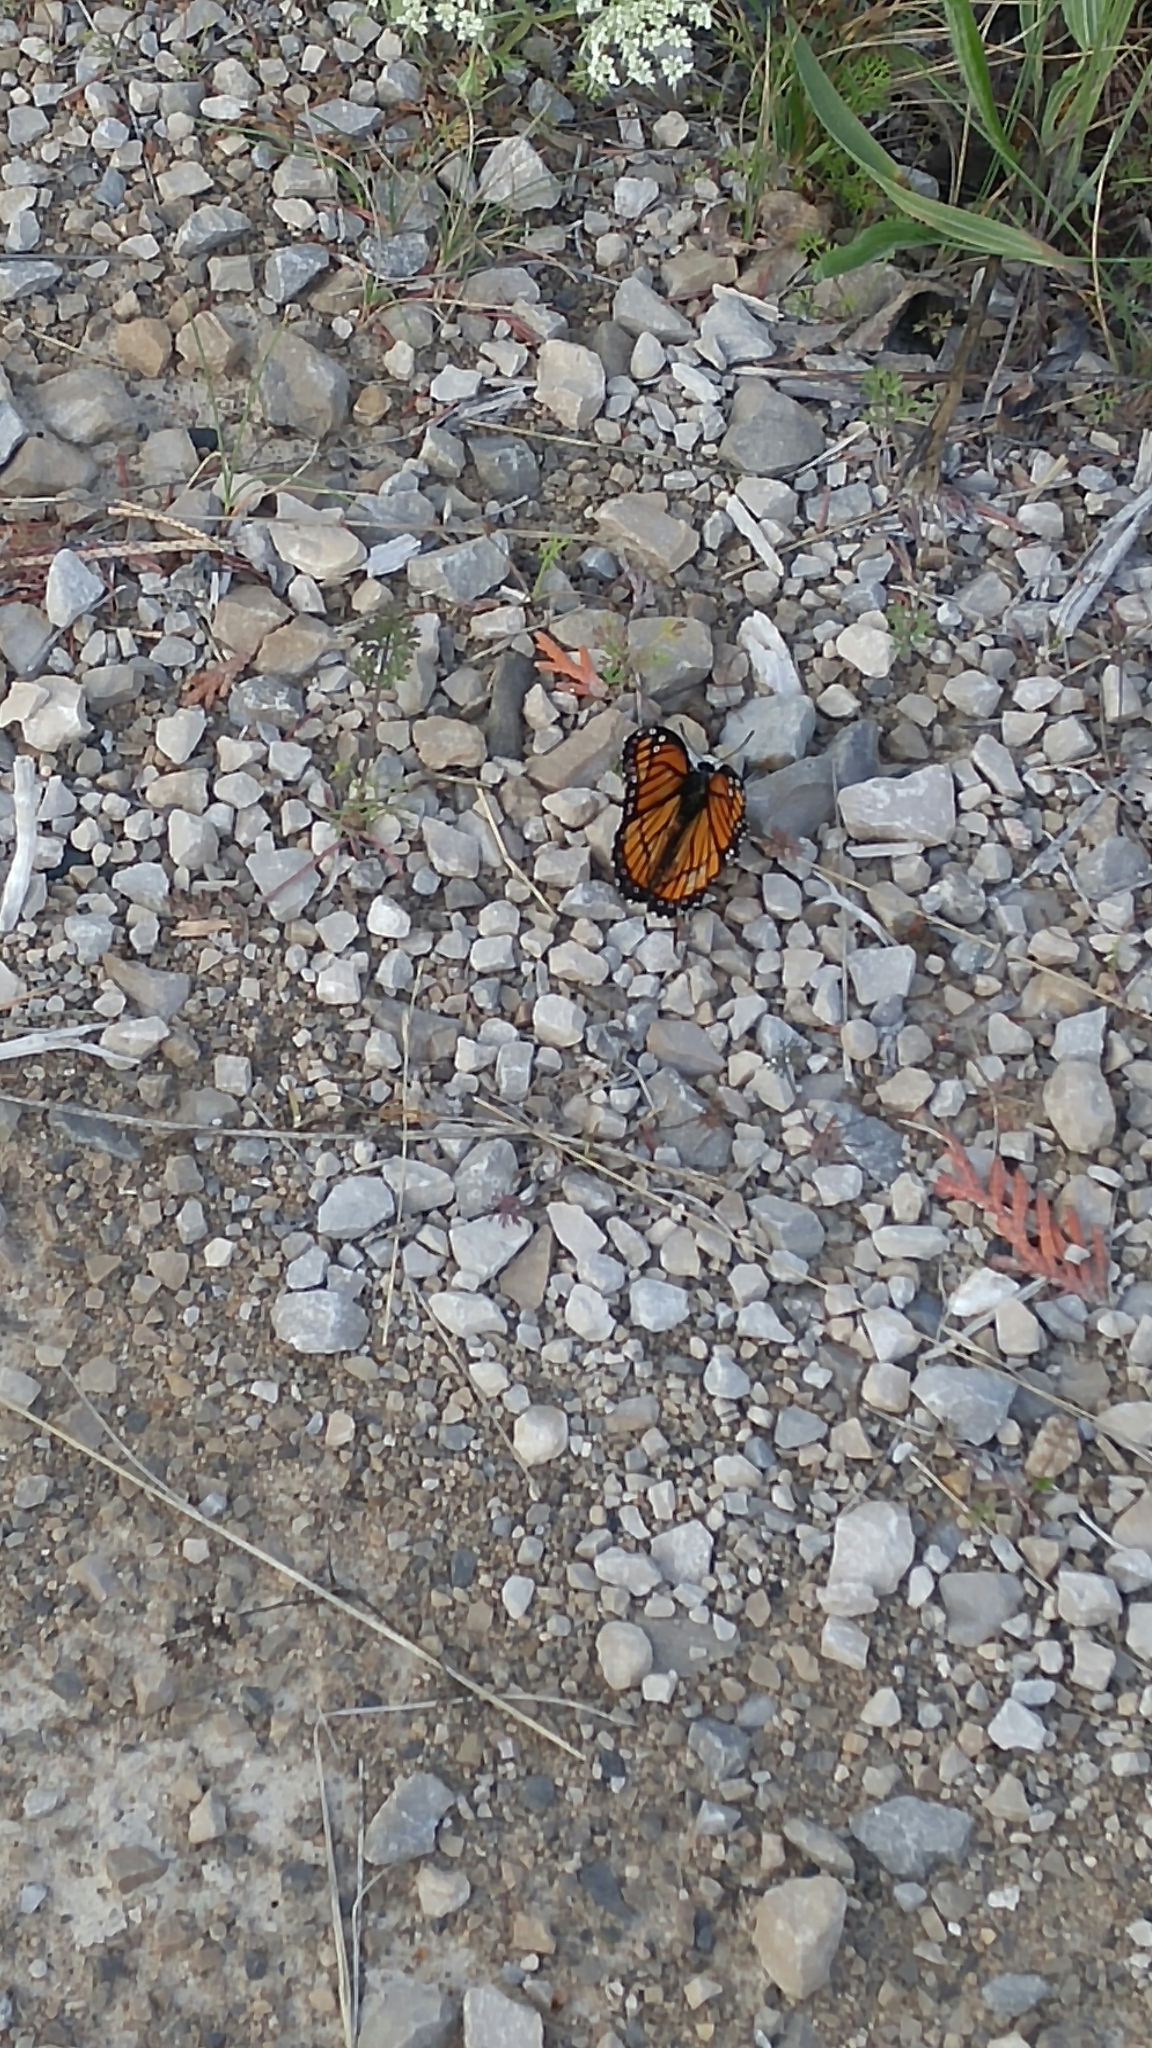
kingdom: Animalia
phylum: Arthropoda
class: Insecta
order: Lepidoptera
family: Nymphalidae
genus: Limenitis
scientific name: Limenitis archippus
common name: Viceroy
